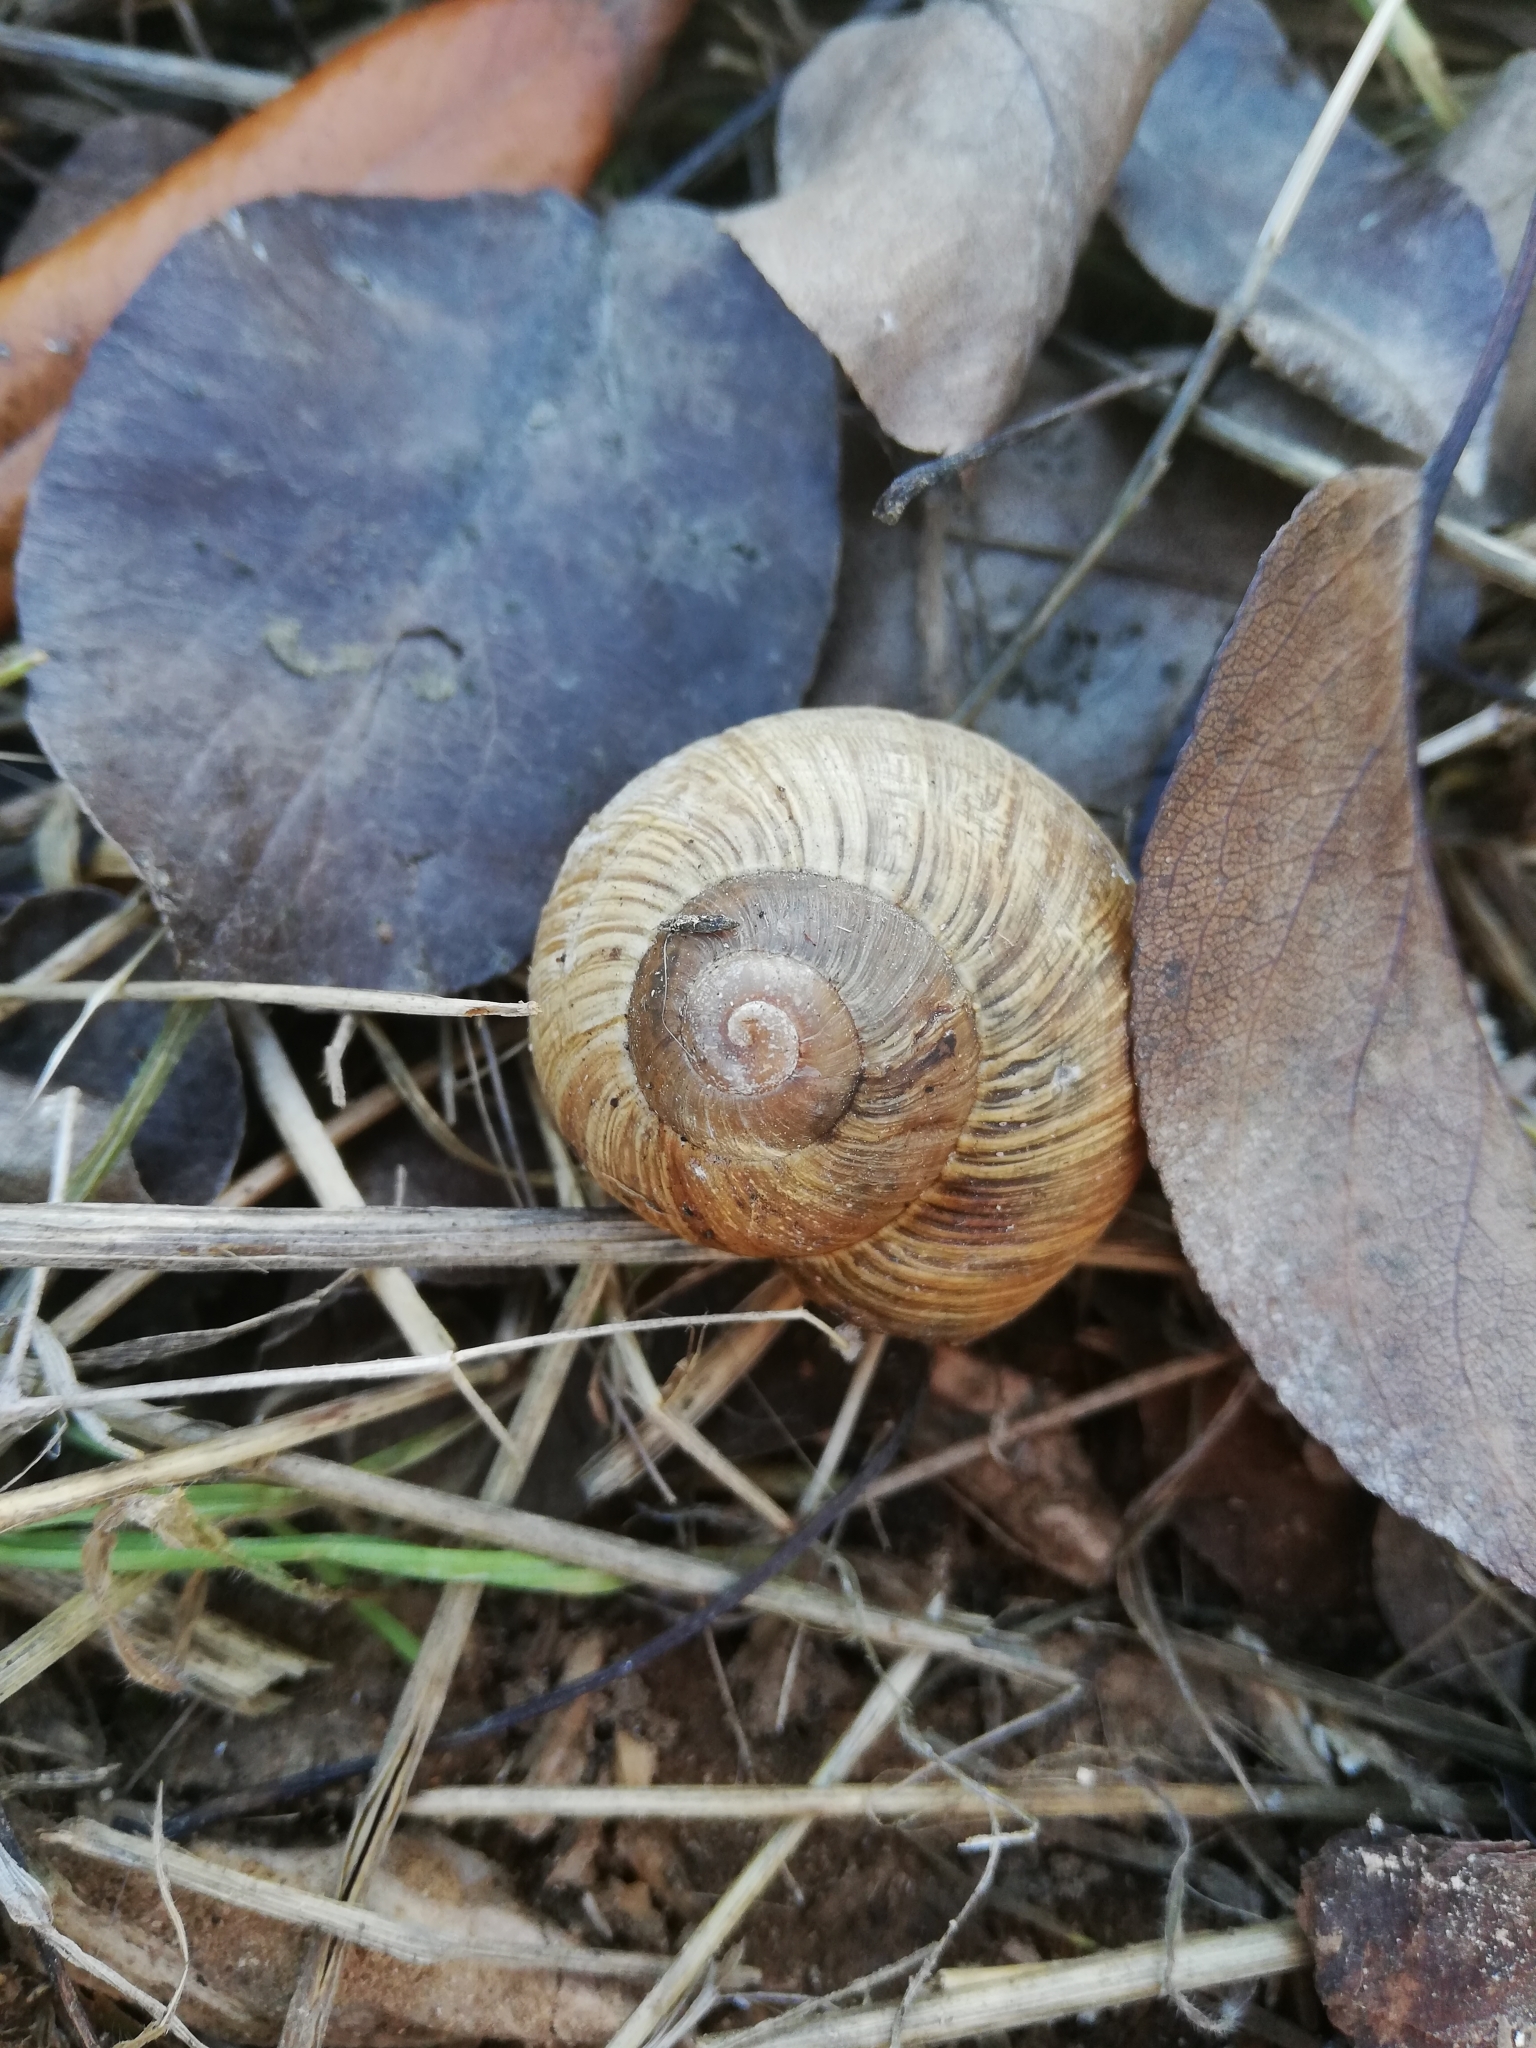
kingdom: Animalia
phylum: Mollusca
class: Gastropoda
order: Stylommatophora
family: Helicidae
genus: Helix
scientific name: Helix pomatia
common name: Roman snail
